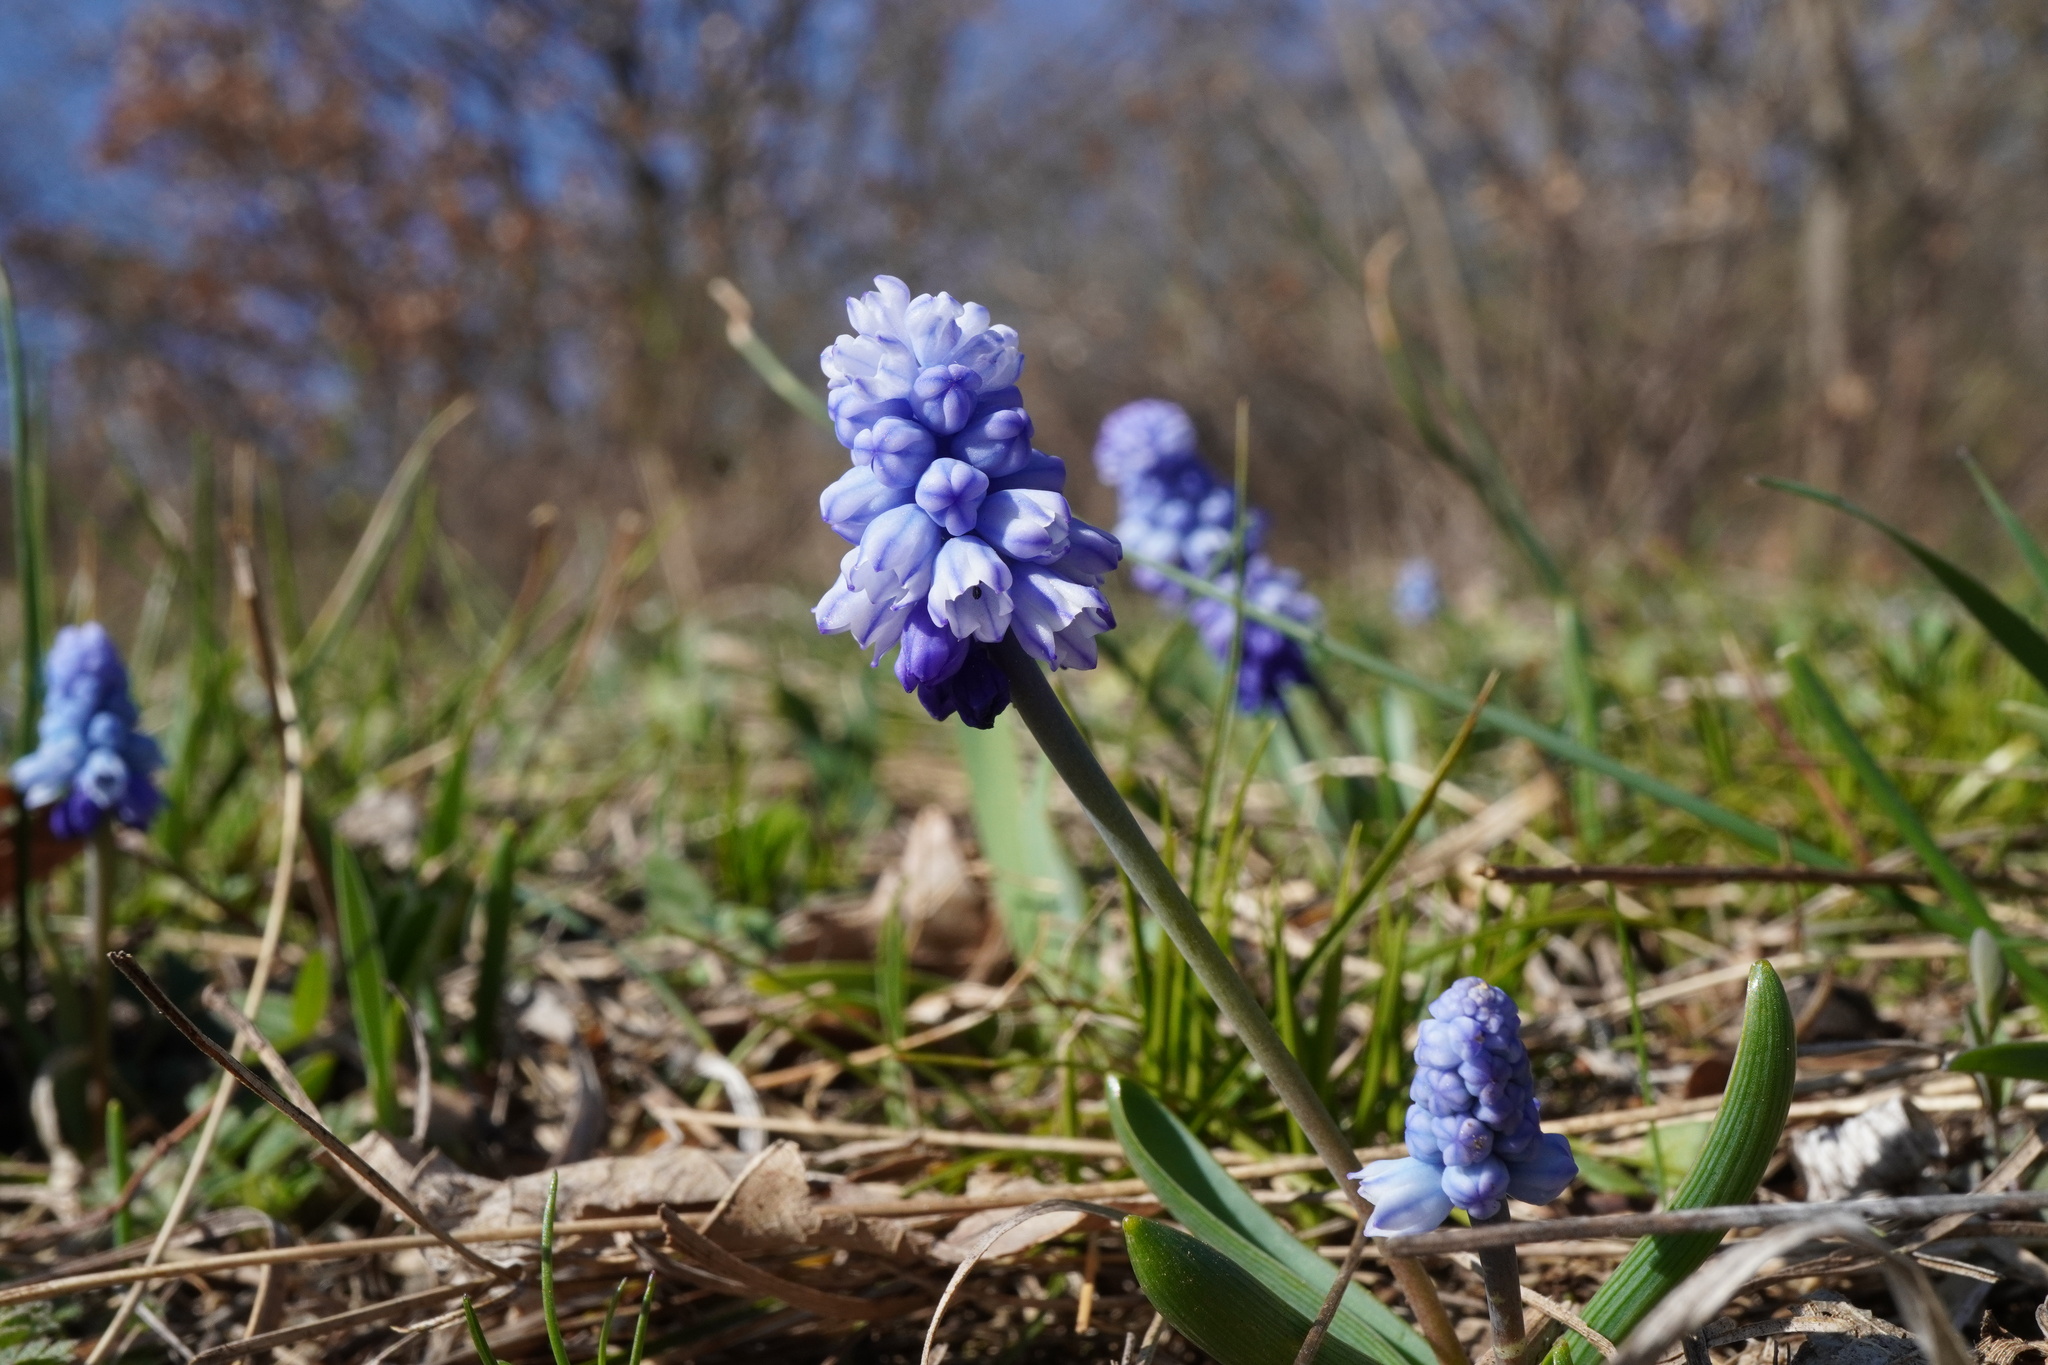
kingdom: Plantae
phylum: Tracheophyta
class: Liliopsida
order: Asparagales
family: Asparagaceae
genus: Muscari
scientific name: Muscari azureum
